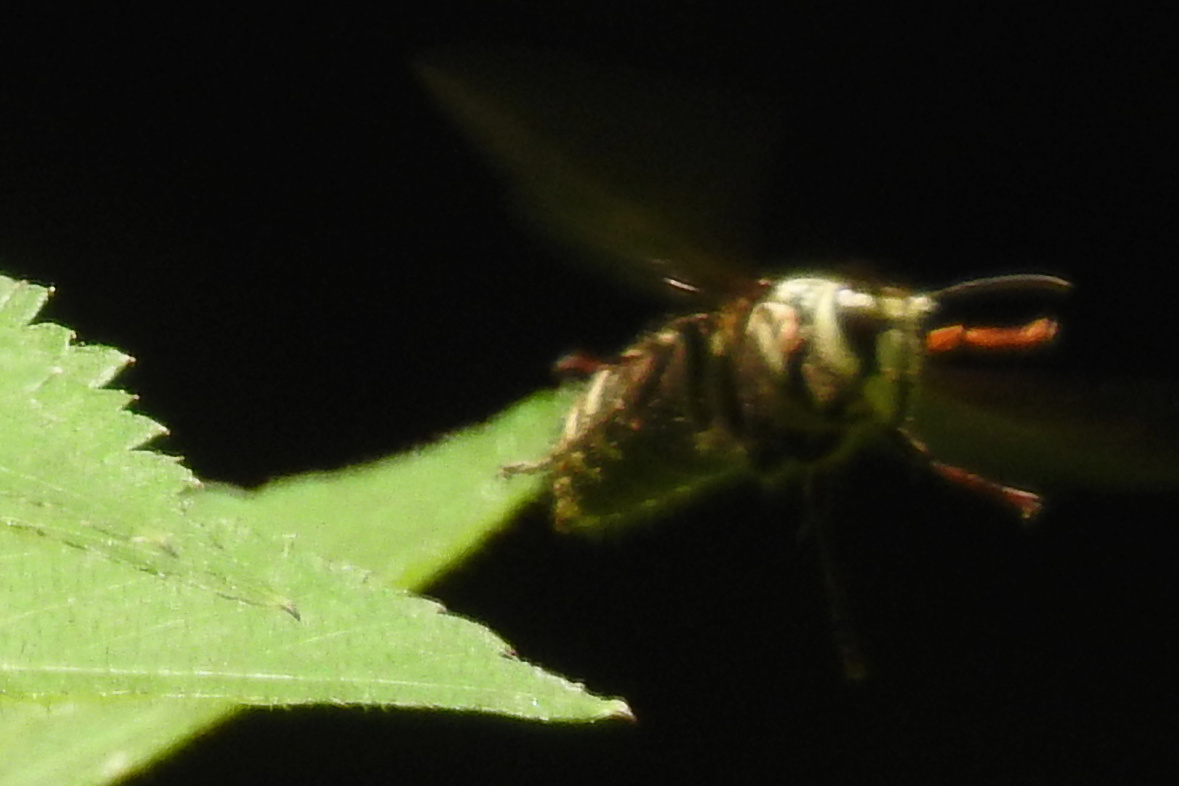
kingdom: Animalia
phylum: Arthropoda
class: Insecta
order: Hymenoptera
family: Vespidae
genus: Dolichovespula
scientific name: Dolichovespula maculata
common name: Bald-faced hornet
